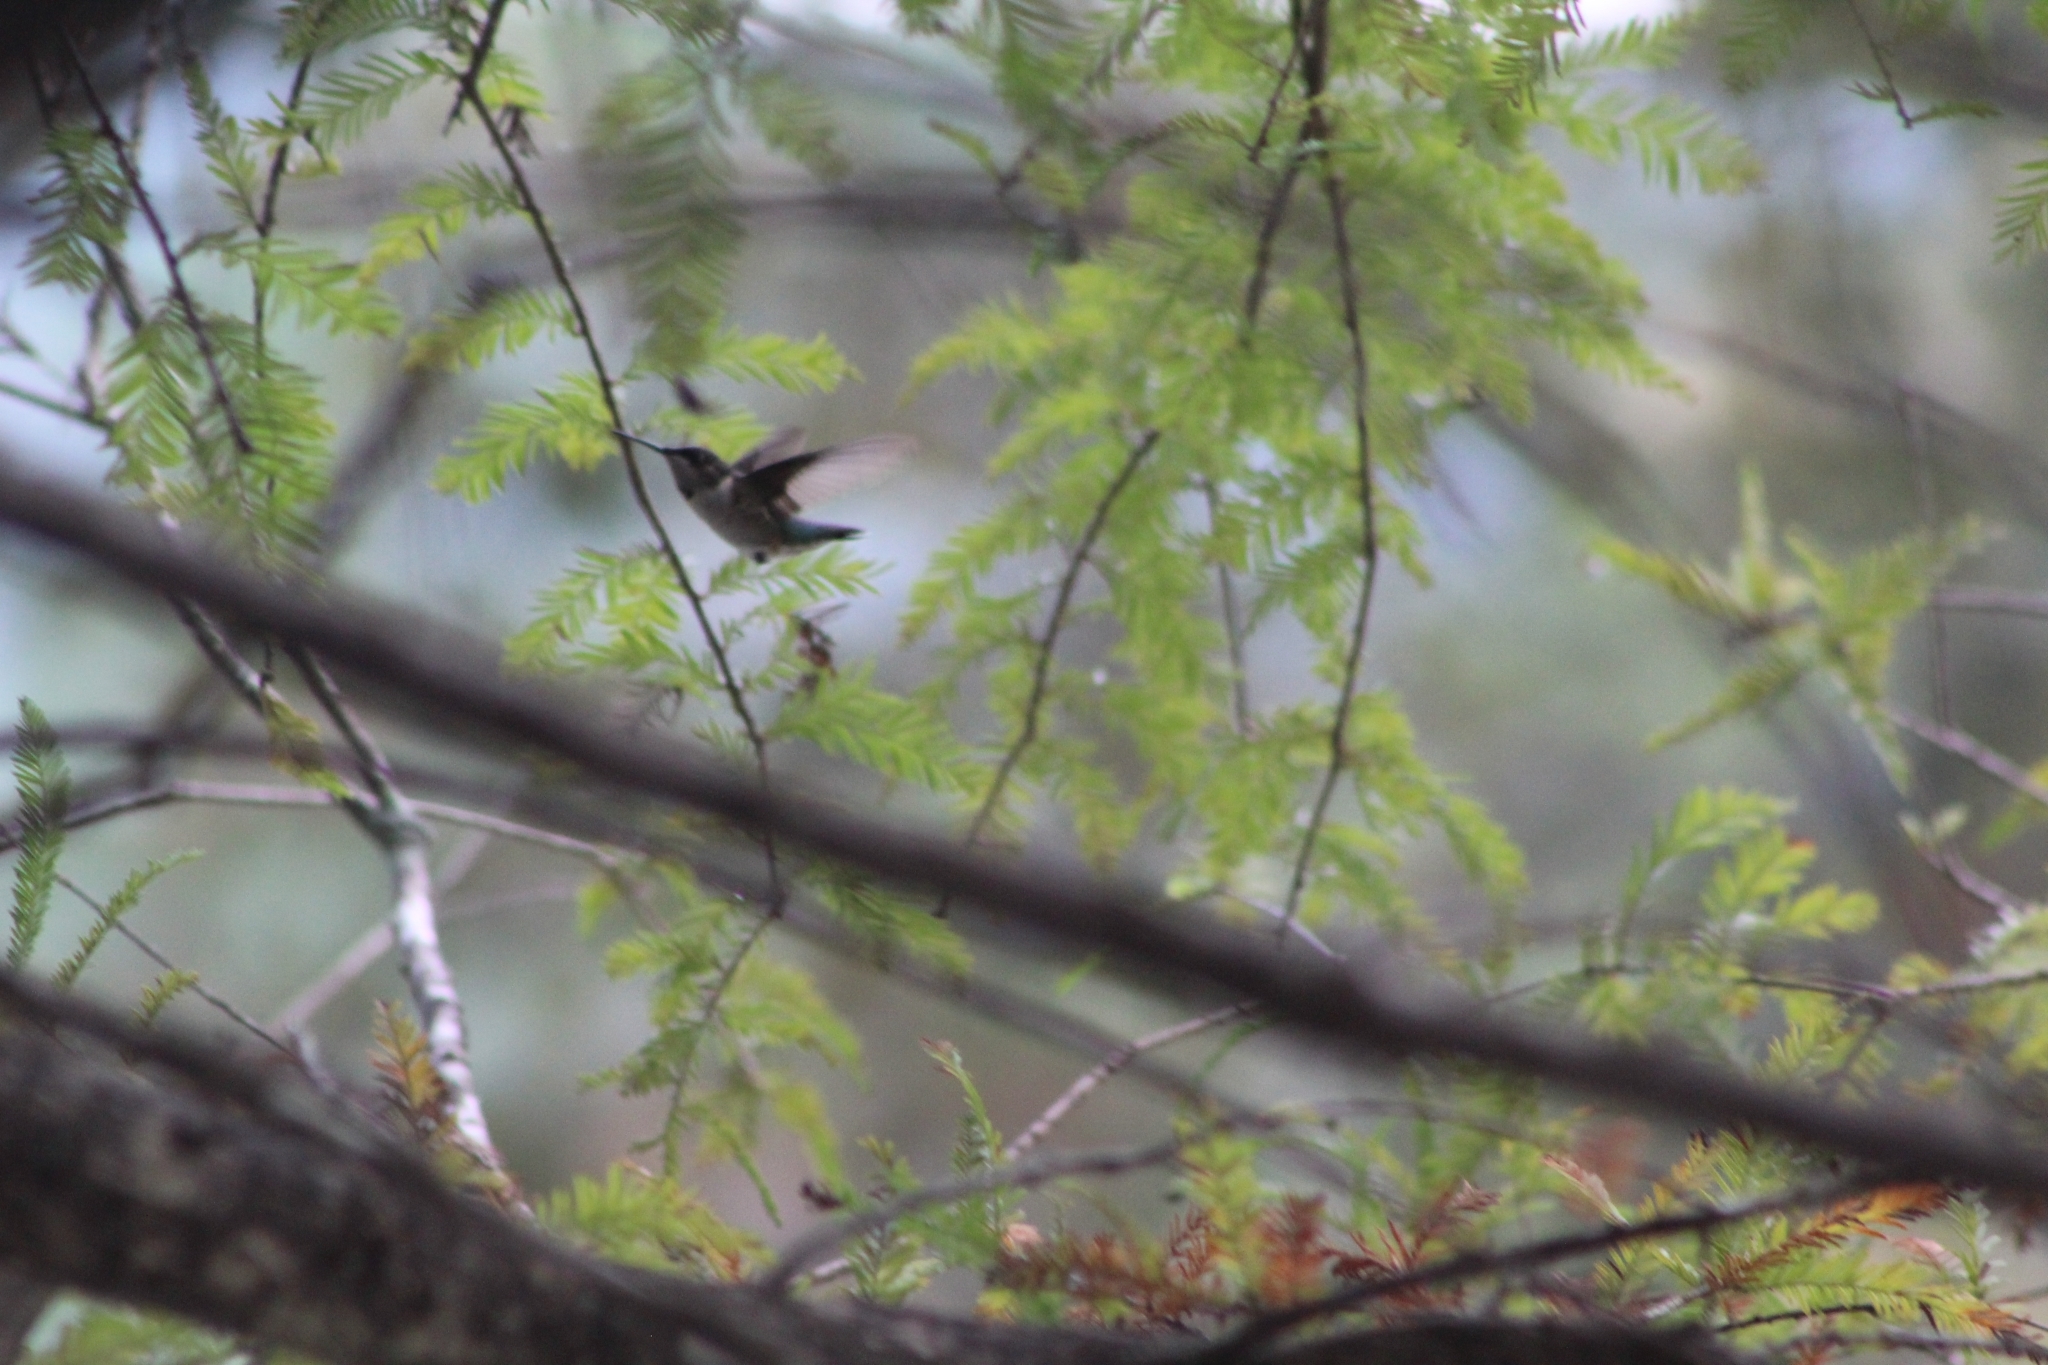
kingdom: Animalia
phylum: Chordata
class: Aves
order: Apodiformes
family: Trochilidae
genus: Archilochus
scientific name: Archilochus colubris
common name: Ruby-throated hummingbird
